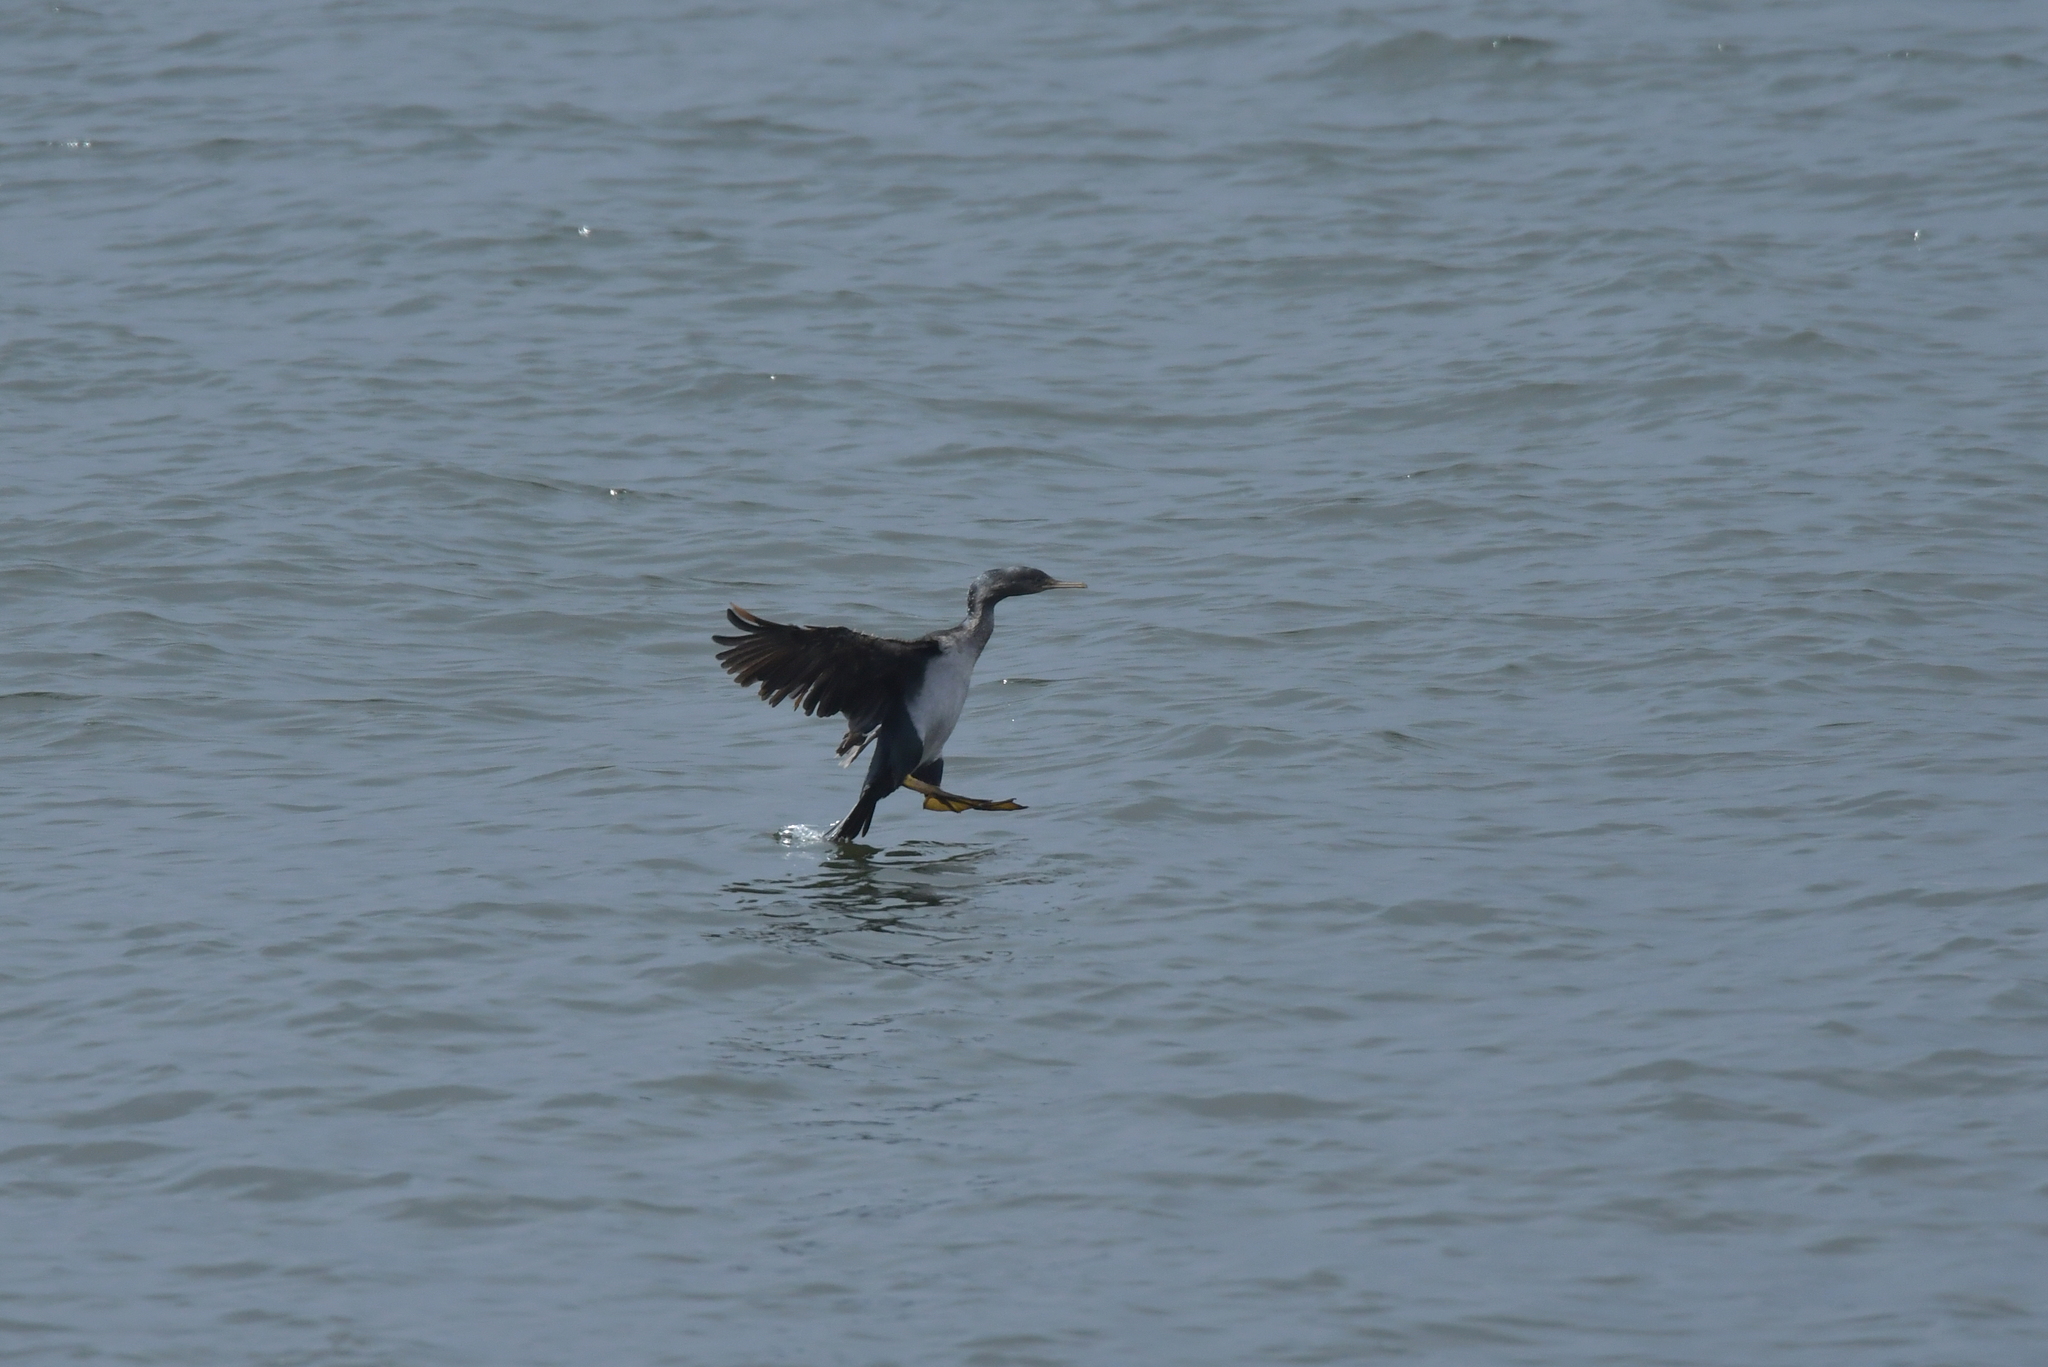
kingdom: Animalia
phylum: Chordata
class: Aves
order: Suliformes
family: Phalacrocoracidae
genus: Phalacrocorax
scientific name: Phalacrocorax featherstoni
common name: Pitt shag
